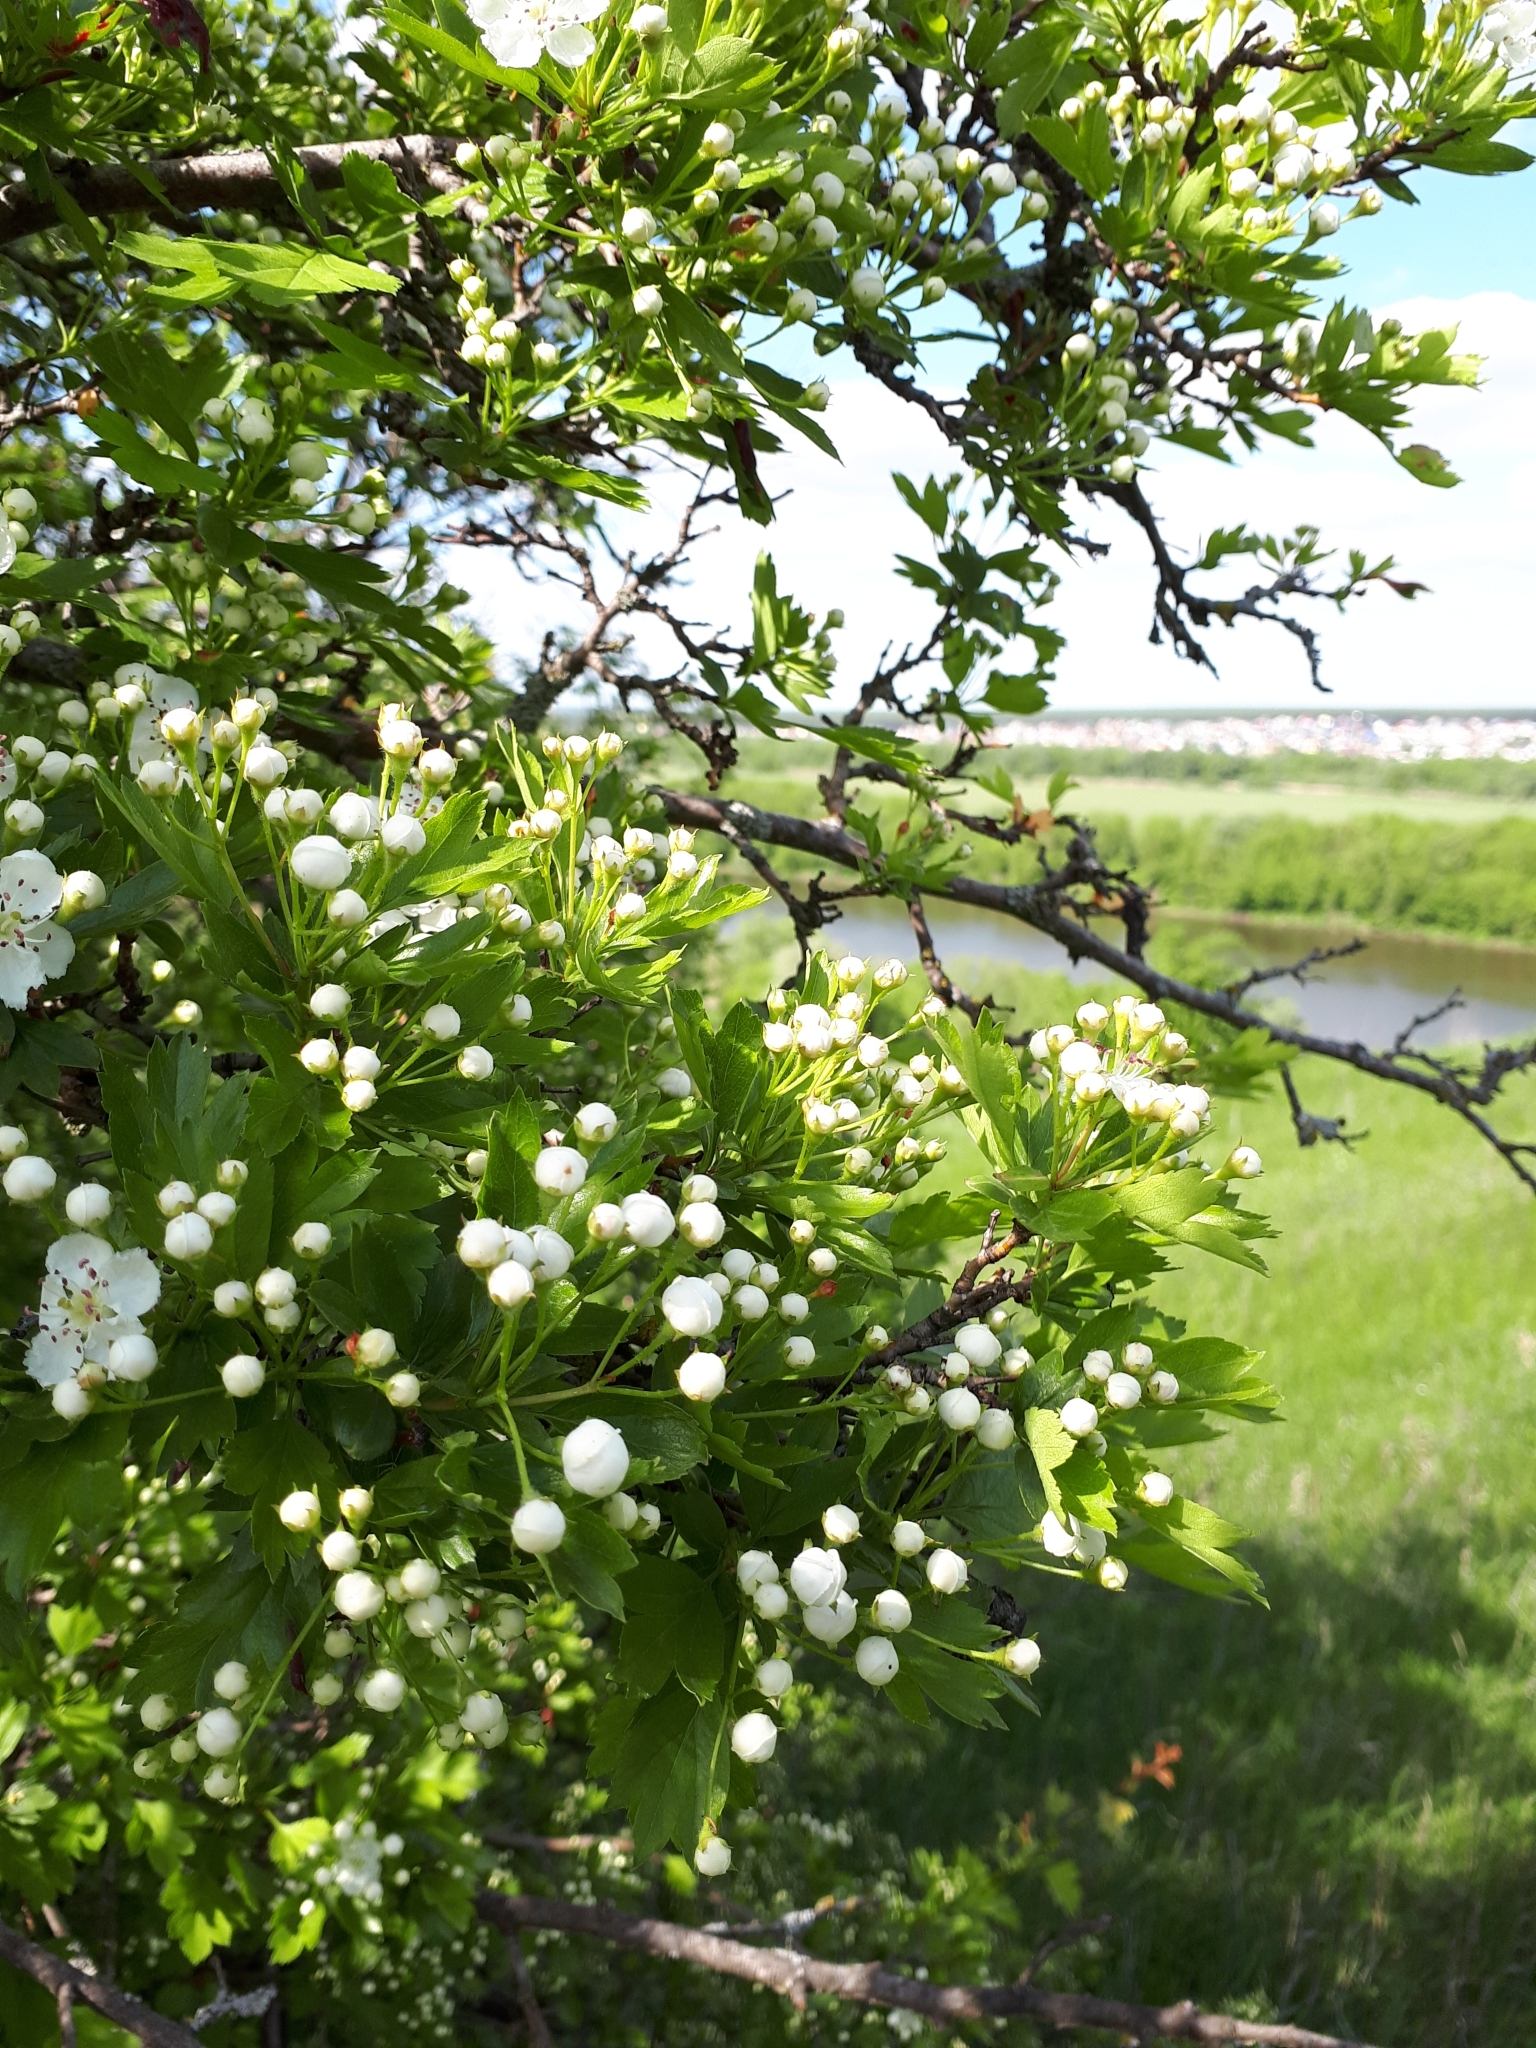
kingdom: Plantae
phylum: Tracheophyta
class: Magnoliopsida
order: Rosales
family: Rosaceae
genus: Crataegus
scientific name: Crataegus monogyna
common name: Hawthorn
